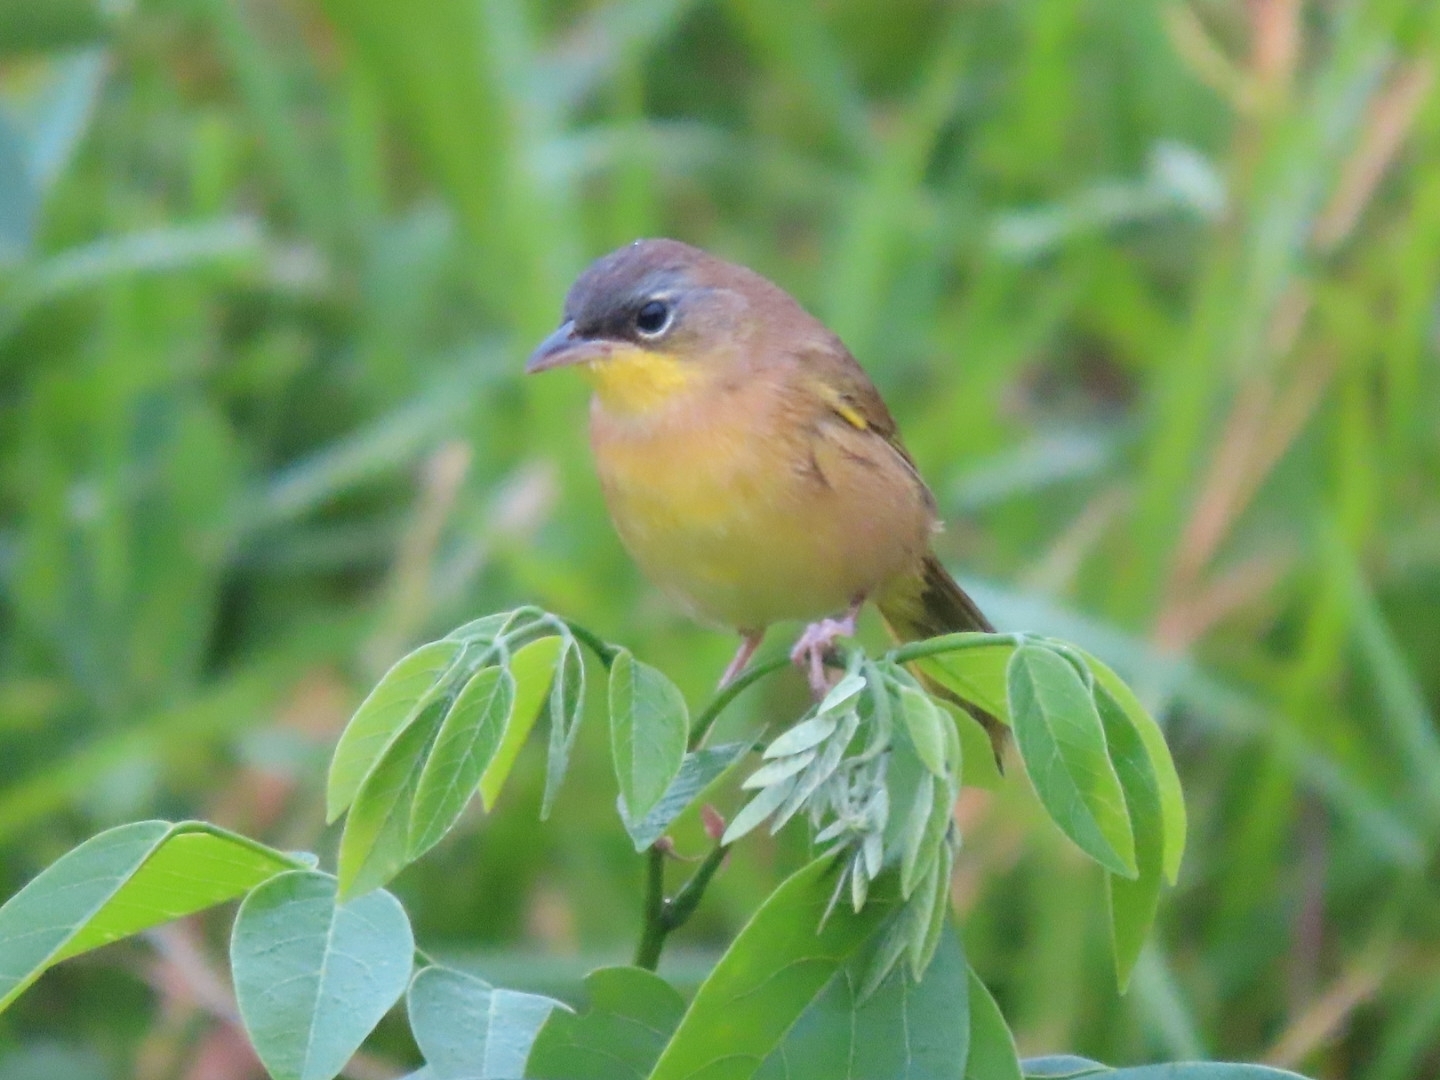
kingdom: Animalia
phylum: Chordata
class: Aves
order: Passeriformes
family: Parulidae
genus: Geothlypis
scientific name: Geothlypis poliocephala
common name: Gray-crowned yellowthroat
